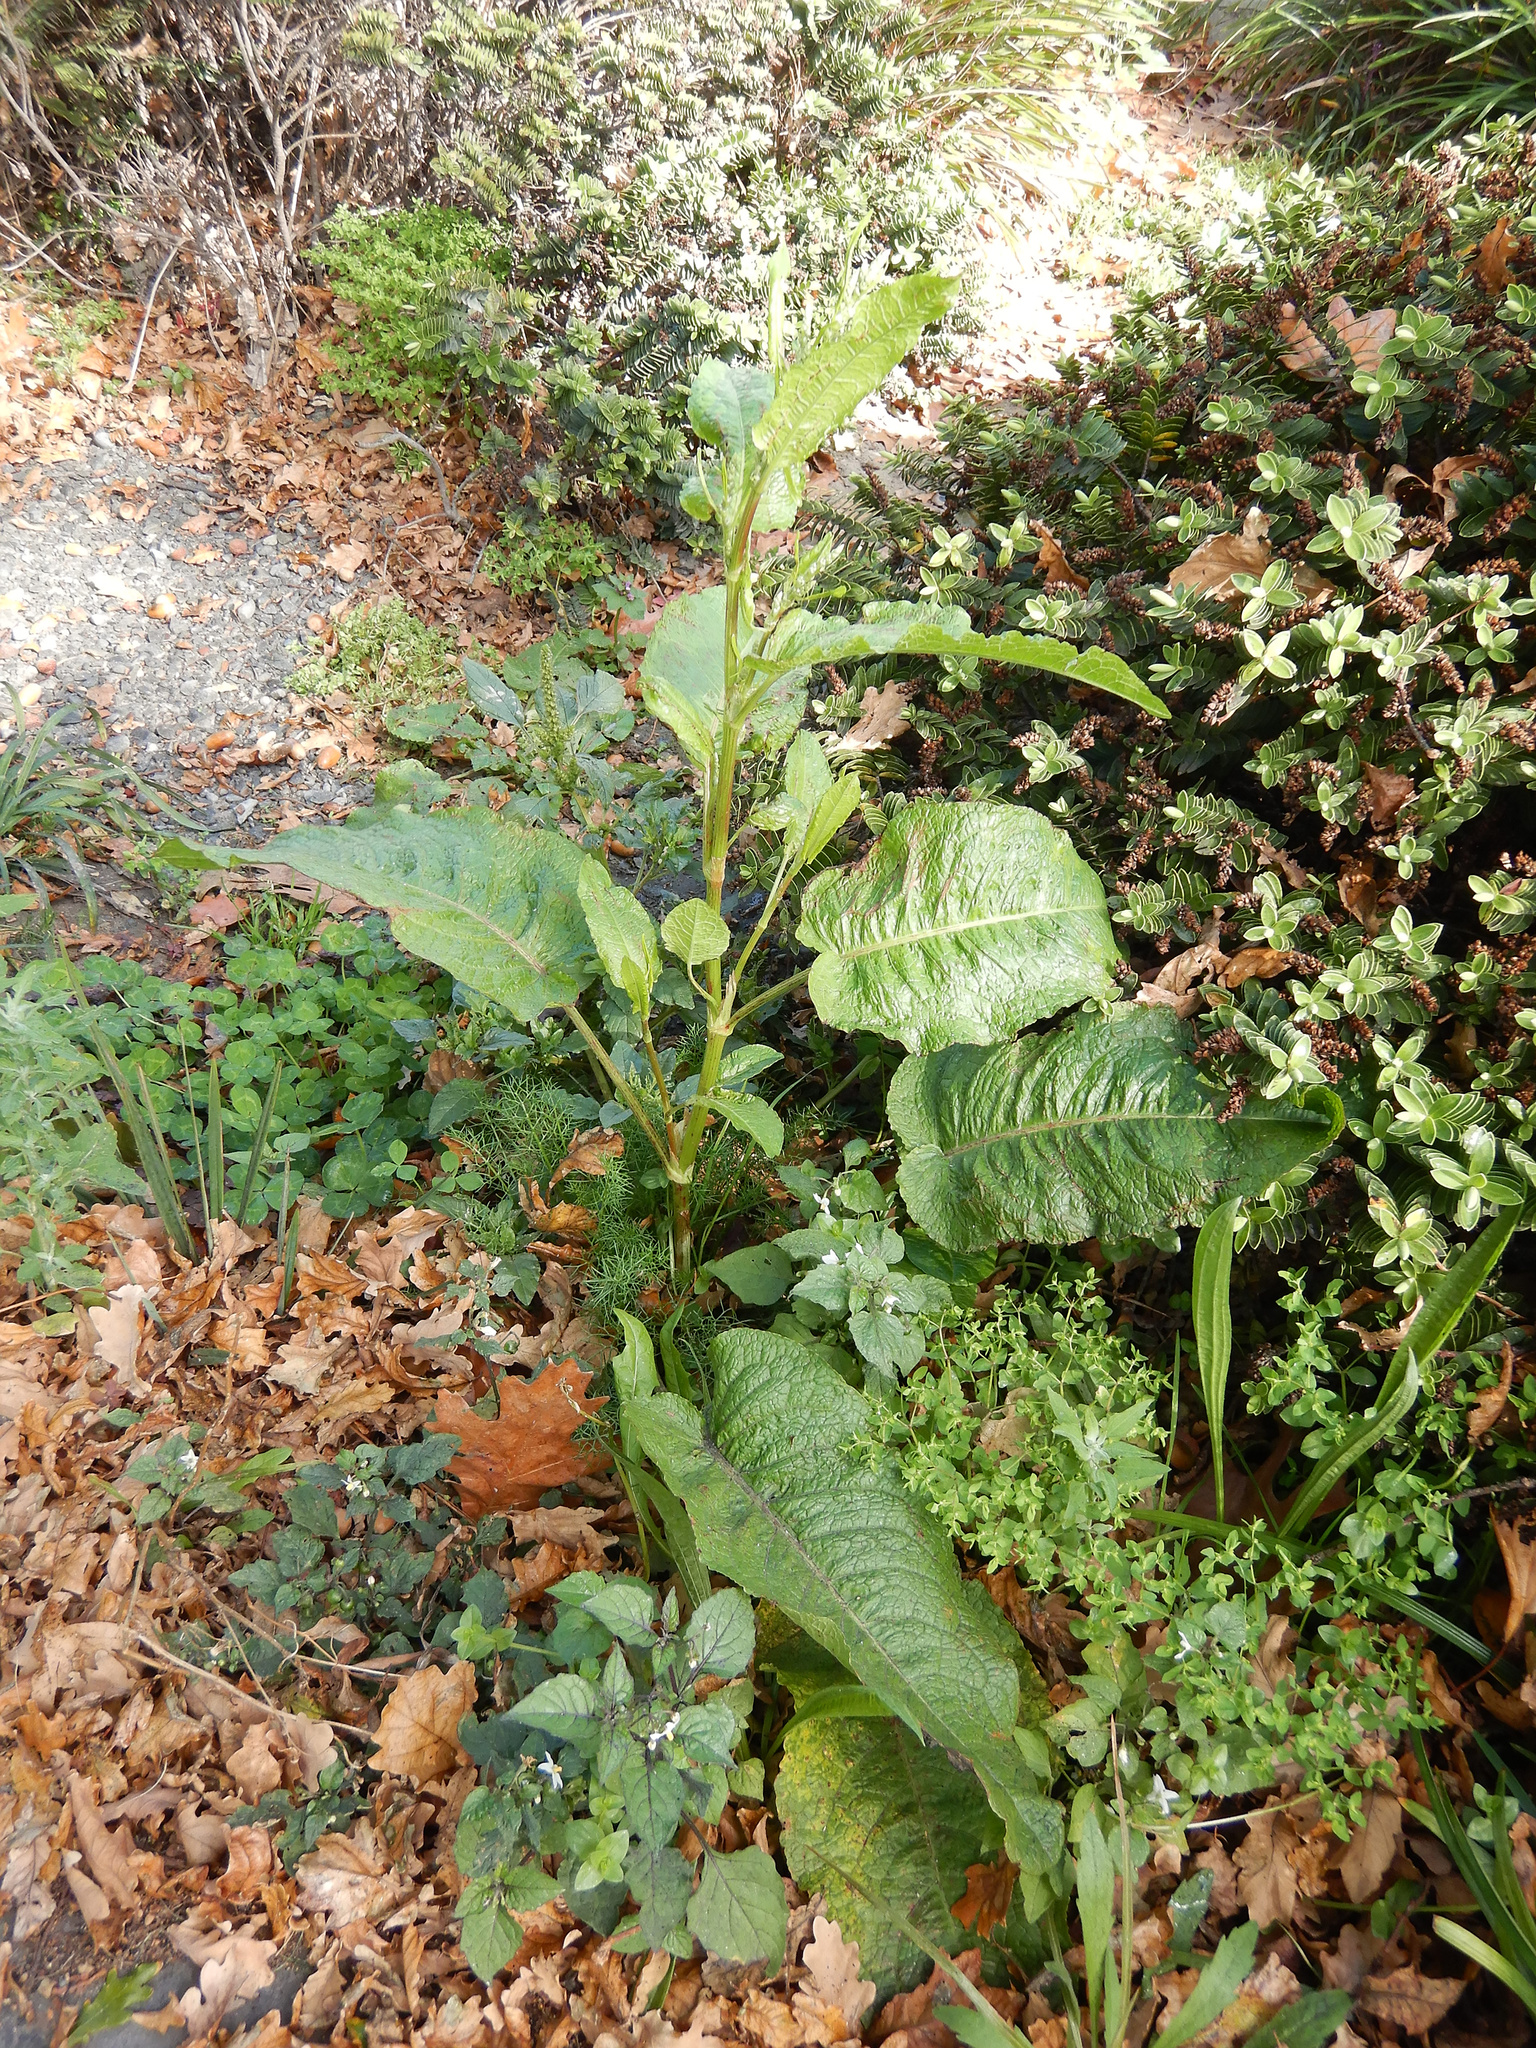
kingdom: Plantae
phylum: Tracheophyta
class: Magnoliopsida
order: Caryophyllales
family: Polygonaceae
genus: Rumex
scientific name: Rumex obtusifolius
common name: Bitter dock
